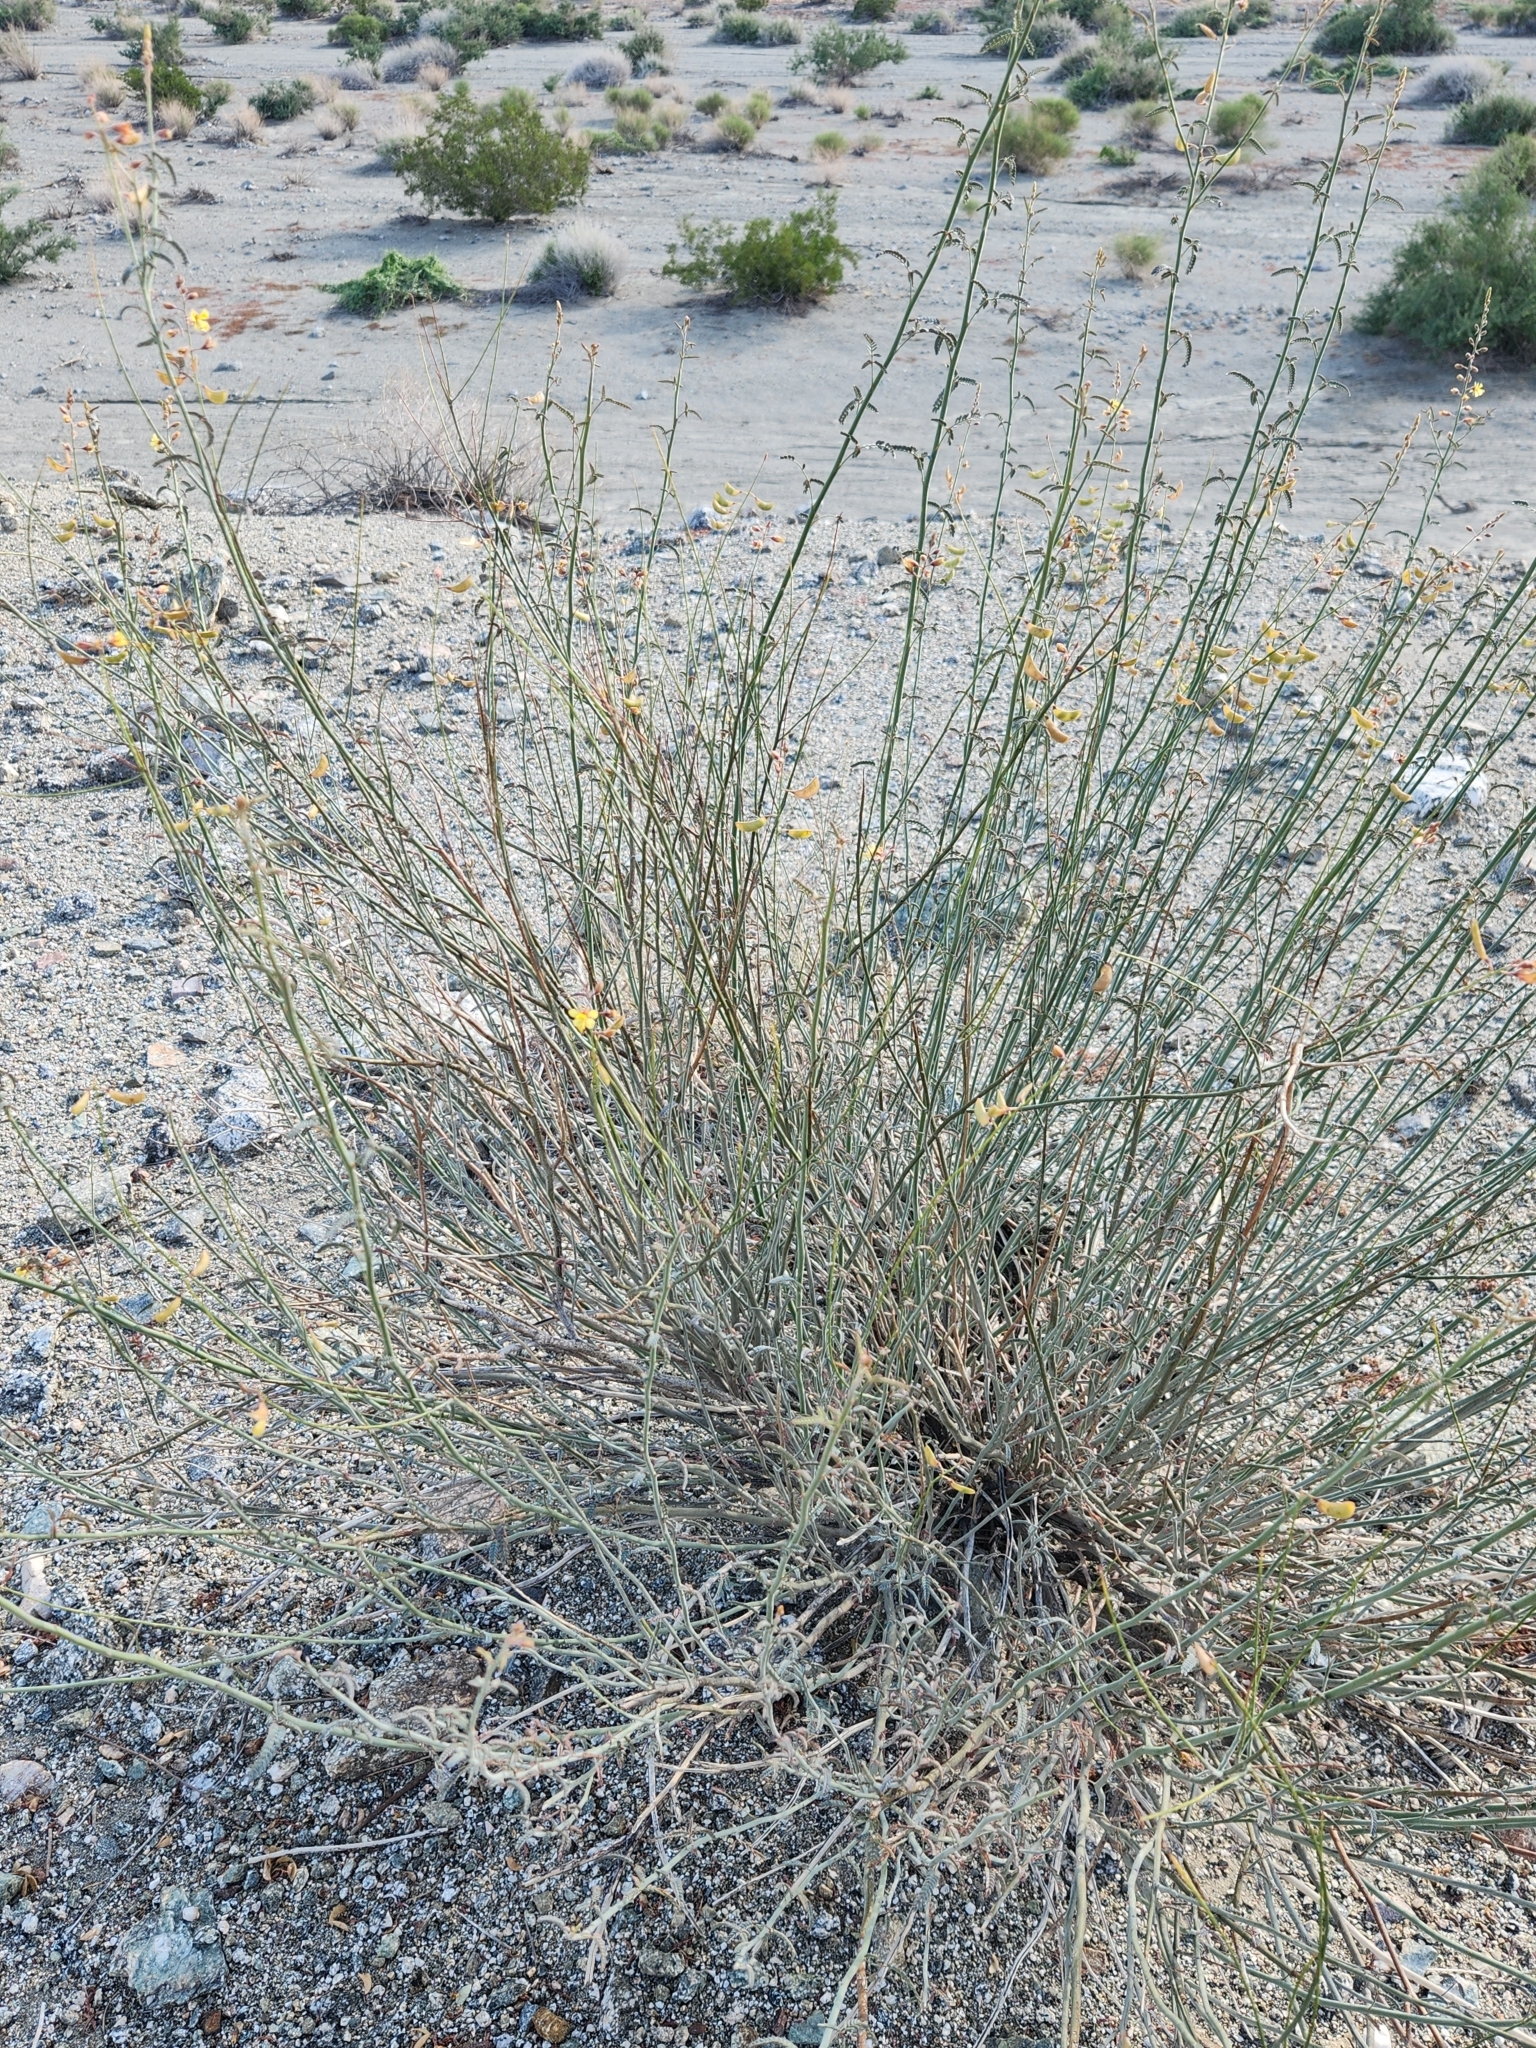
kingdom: Plantae
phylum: Tracheophyta
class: Magnoliopsida
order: Fabales
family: Fabaceae
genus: Hoffmannseggia
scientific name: Hoffmannseggia microphylla
